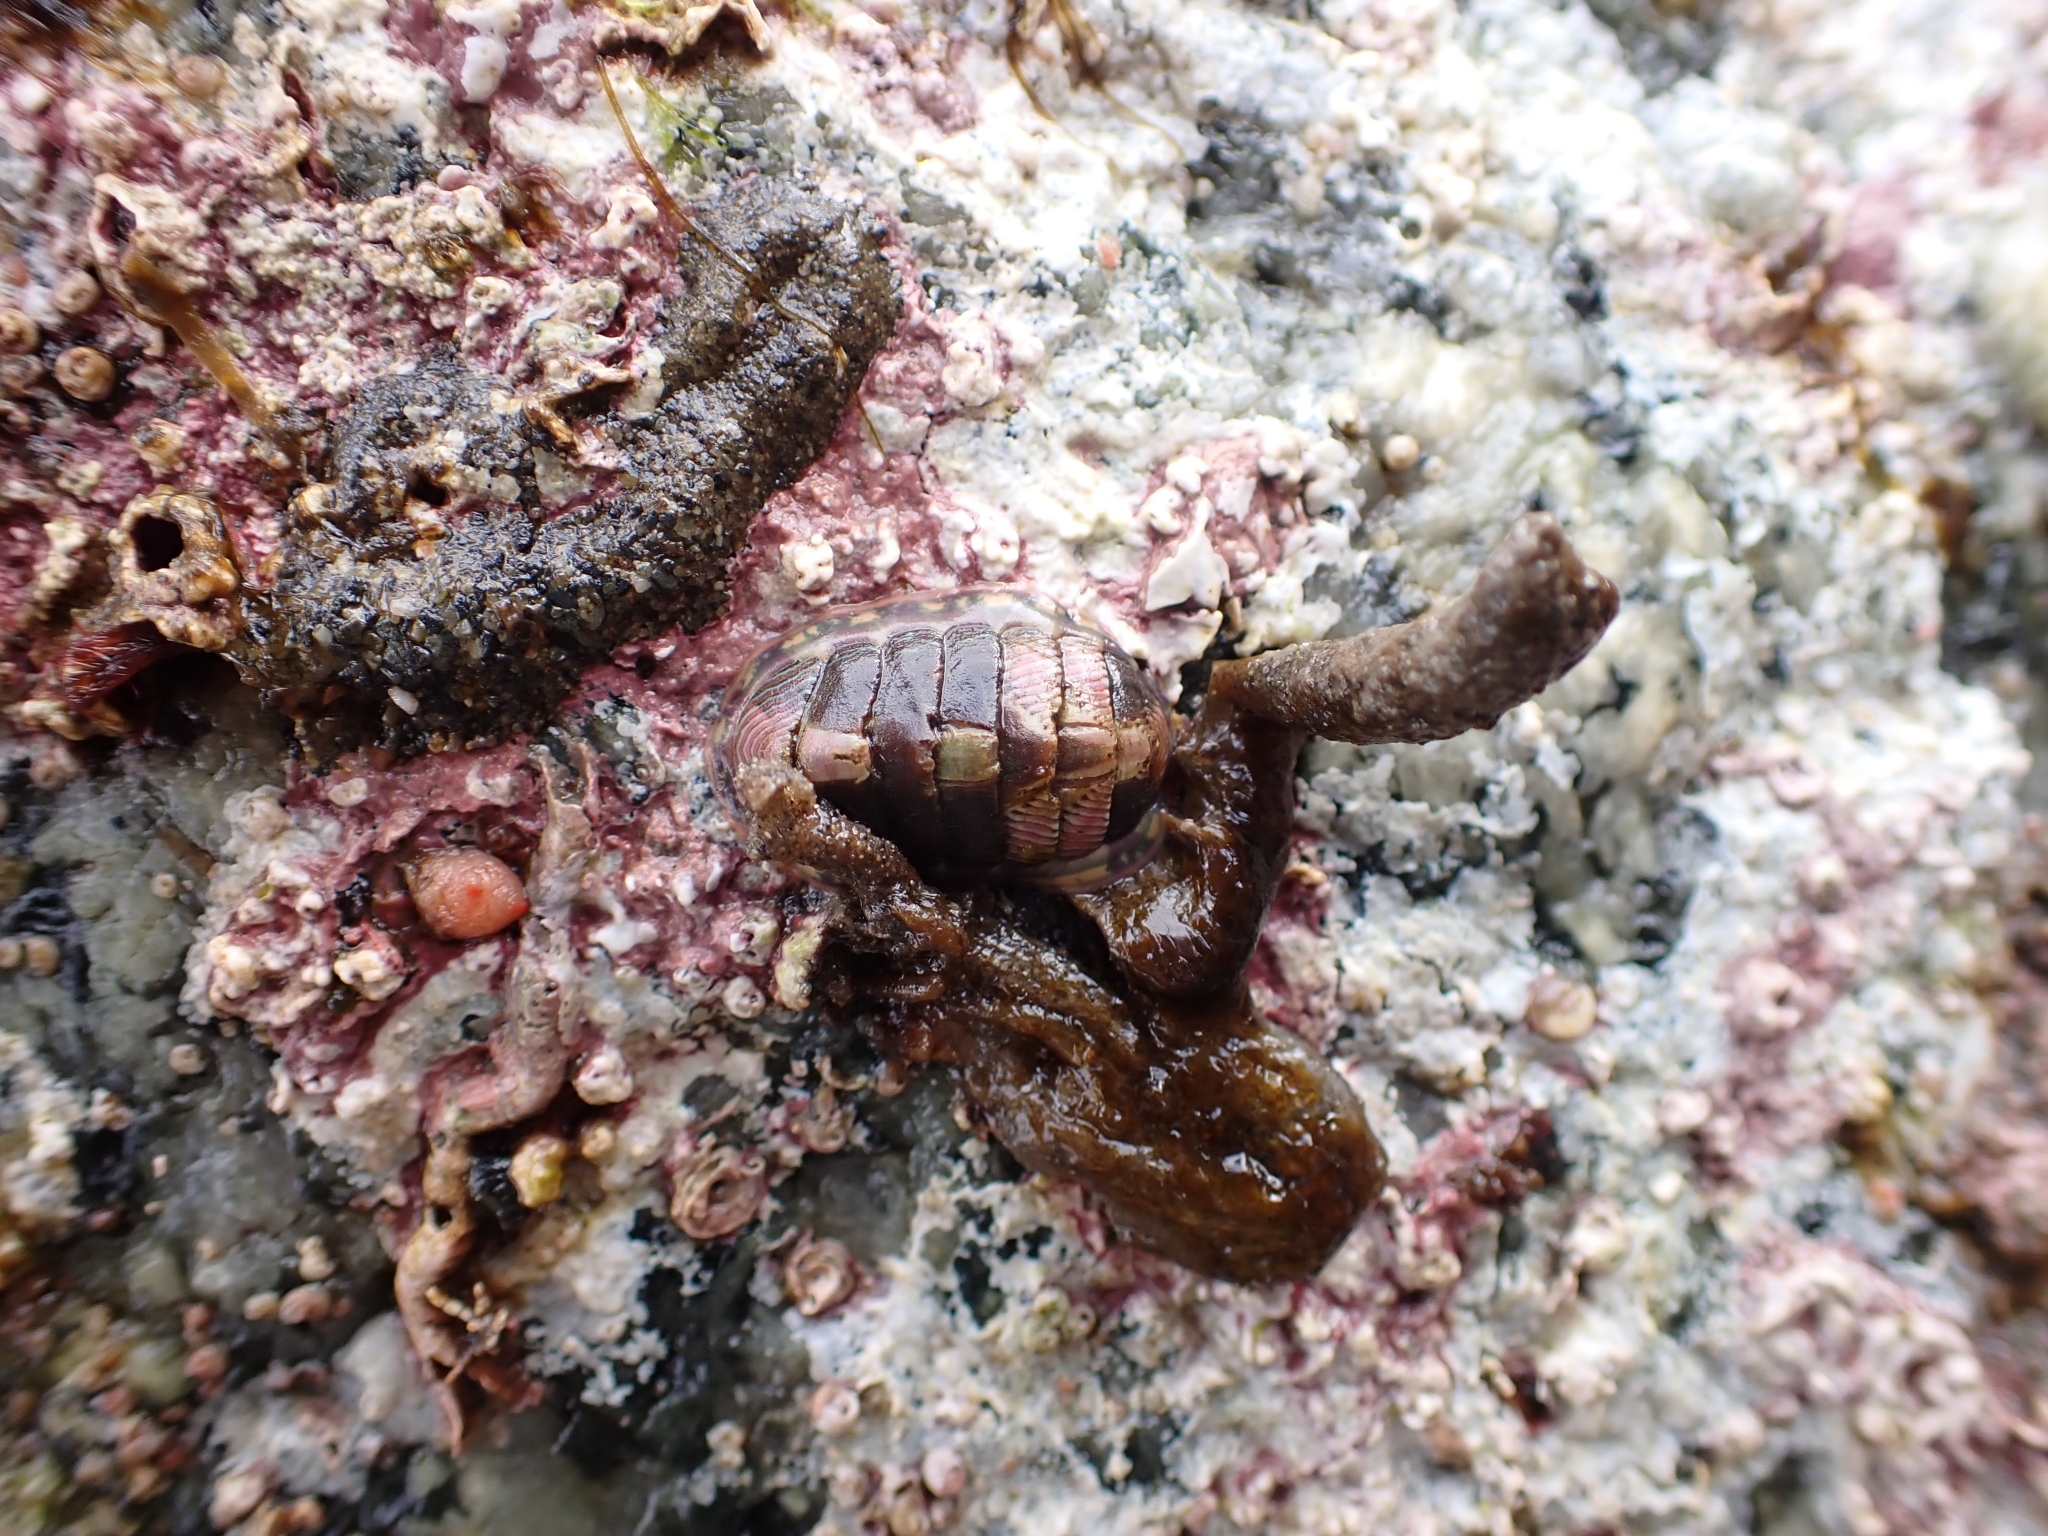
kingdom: Animalia
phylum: Mollusca
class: Polyplacophora
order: Chitonida
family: Tonicellidae
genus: Tonicella
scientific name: Tonicella lineata
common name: Lined chiton
